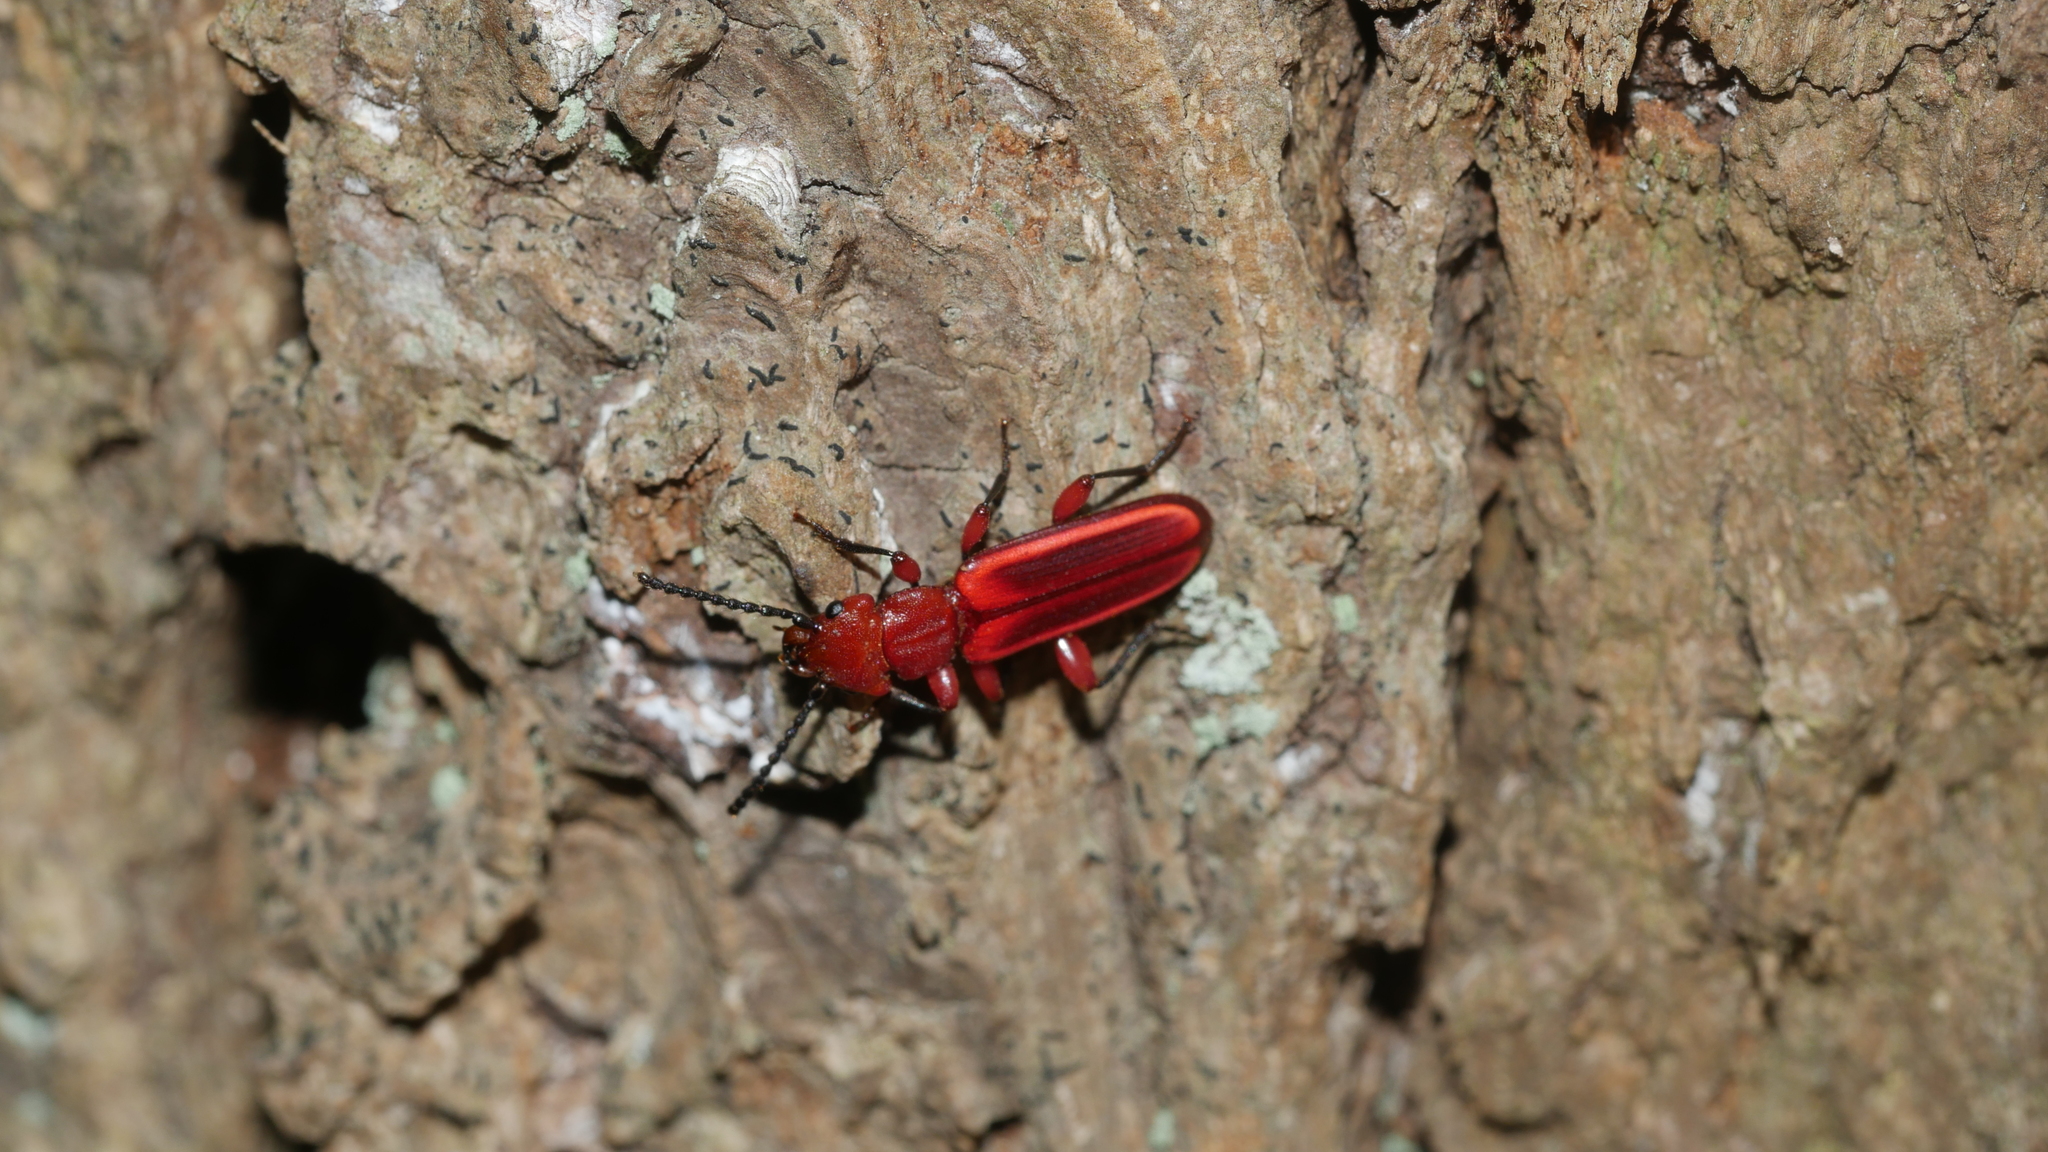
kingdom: Animalia
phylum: Arthropoda
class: Insecta
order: Coleoptera
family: Cucujidae
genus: Cucujus
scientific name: Cucujus clavipes
